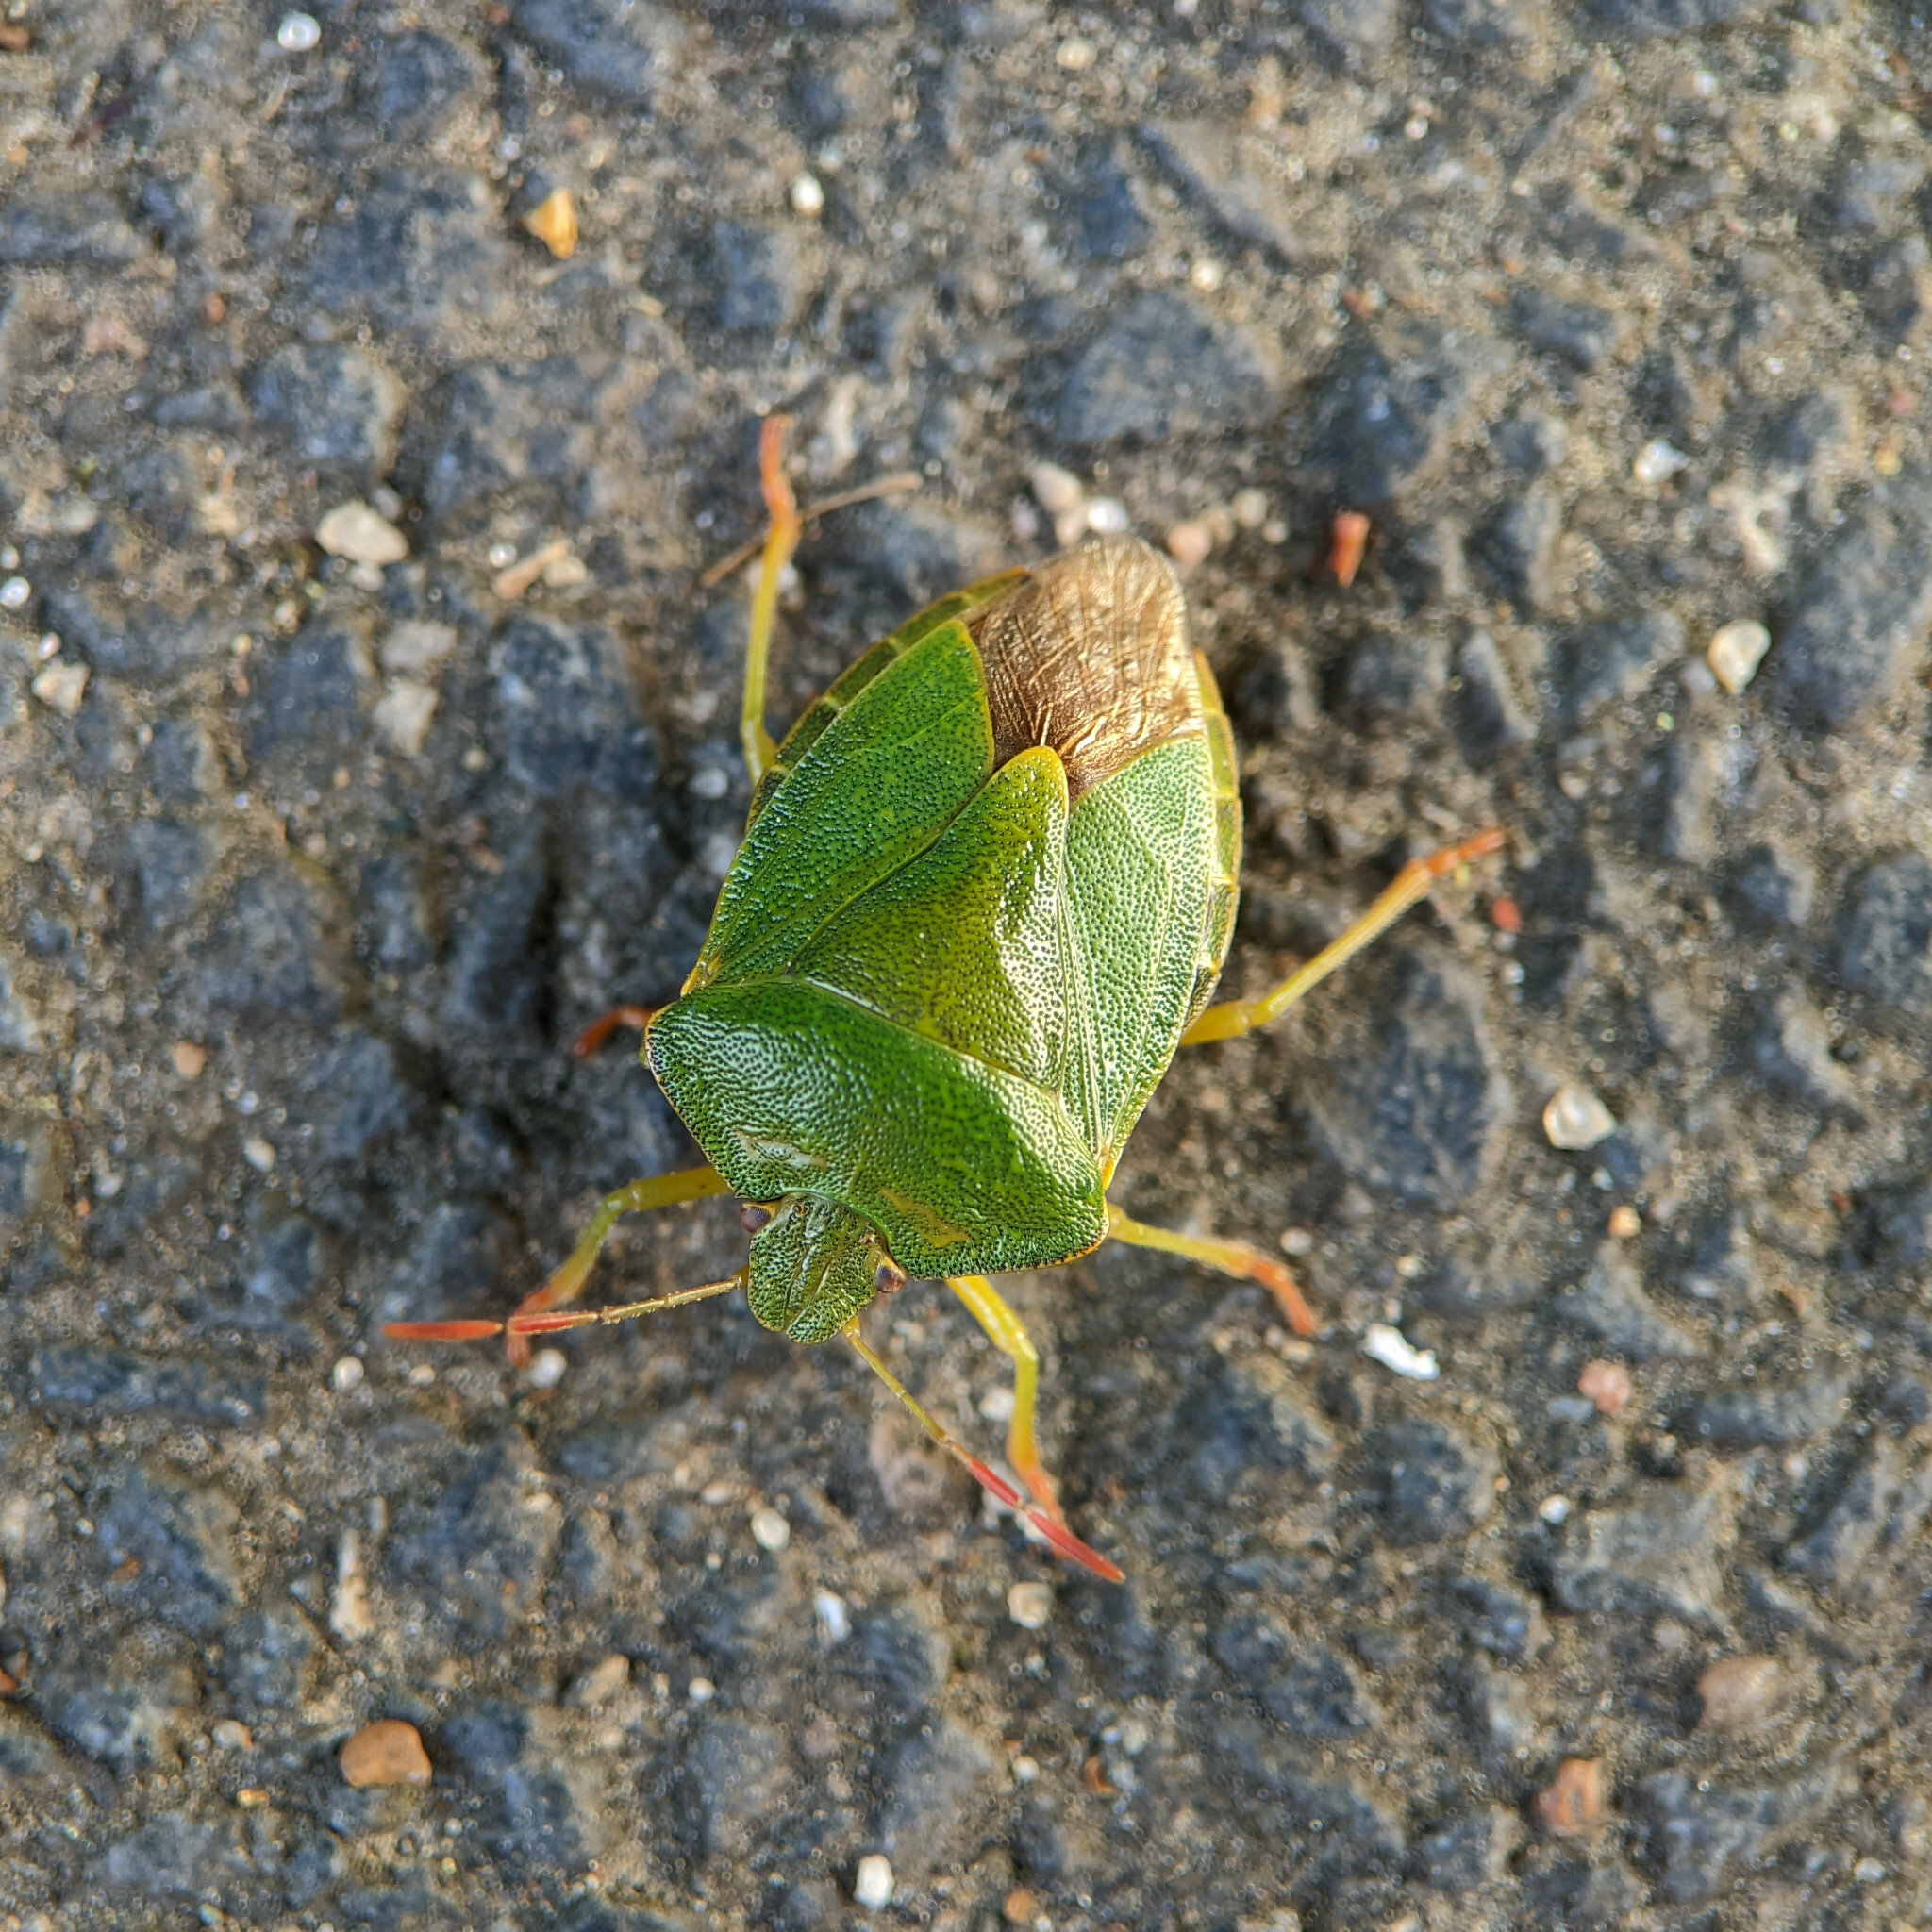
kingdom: Animalia
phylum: Arthropoda
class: Insecta
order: Hemiptera
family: Pentatomidae
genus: Palomena
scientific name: Palomena prasina
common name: Green shieldbug
